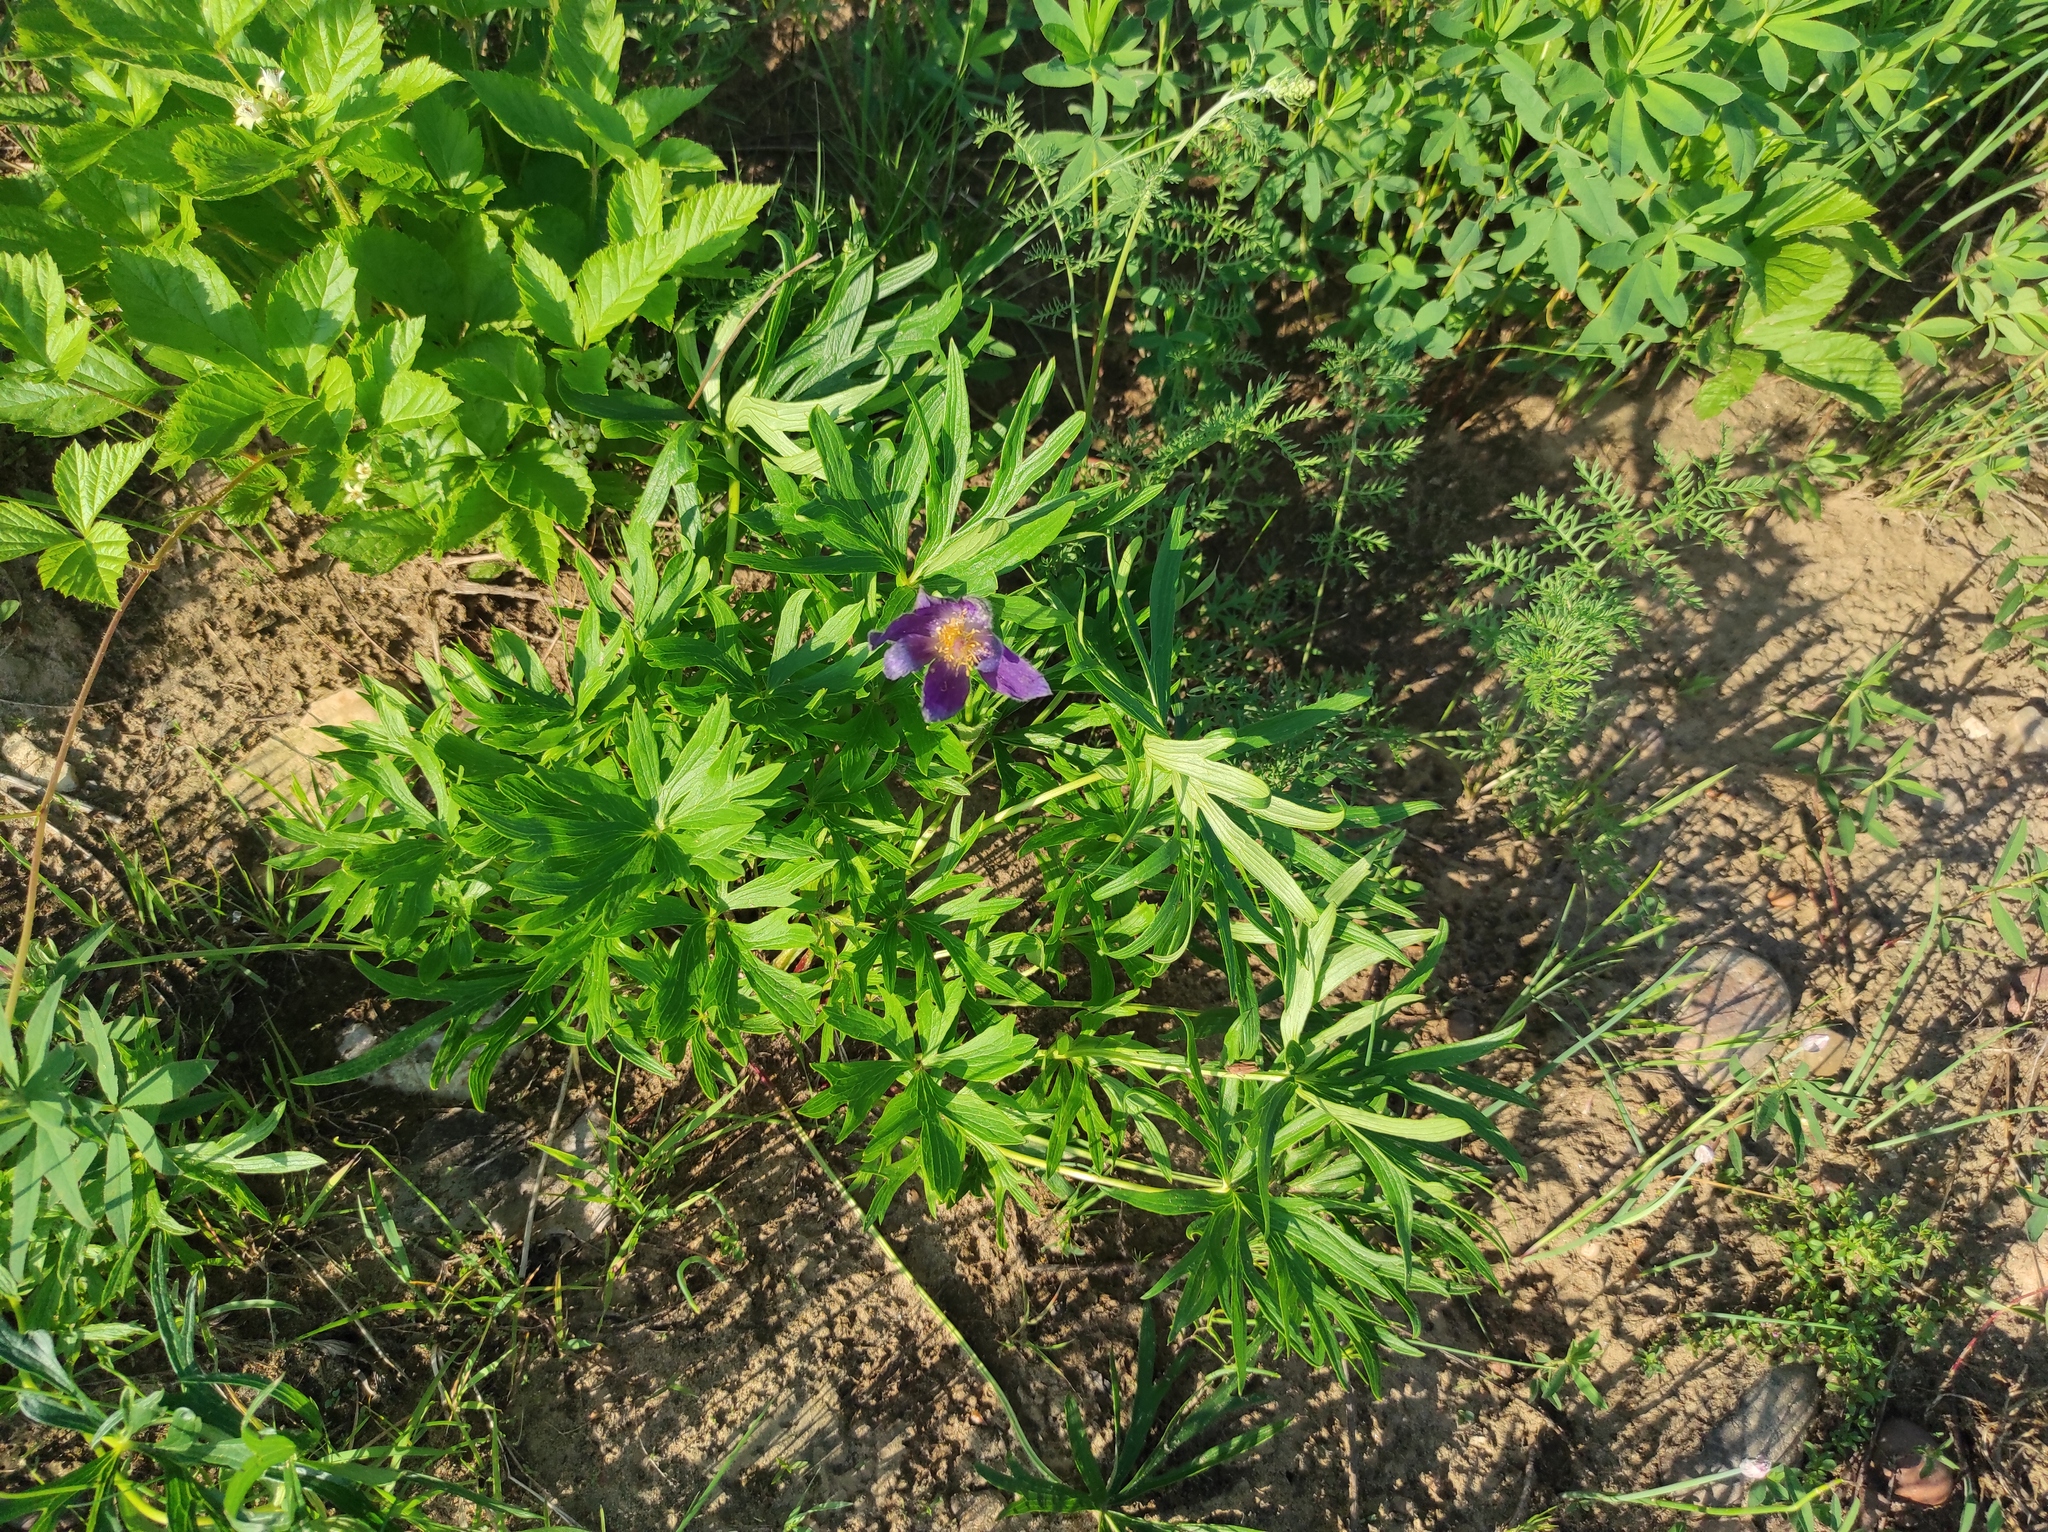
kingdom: Plantae
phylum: Tracheophyta
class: Magnoliopsida
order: Rosales
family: Rosaceae
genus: Rubus
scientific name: Rubus saxatilis
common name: Stone bramble
